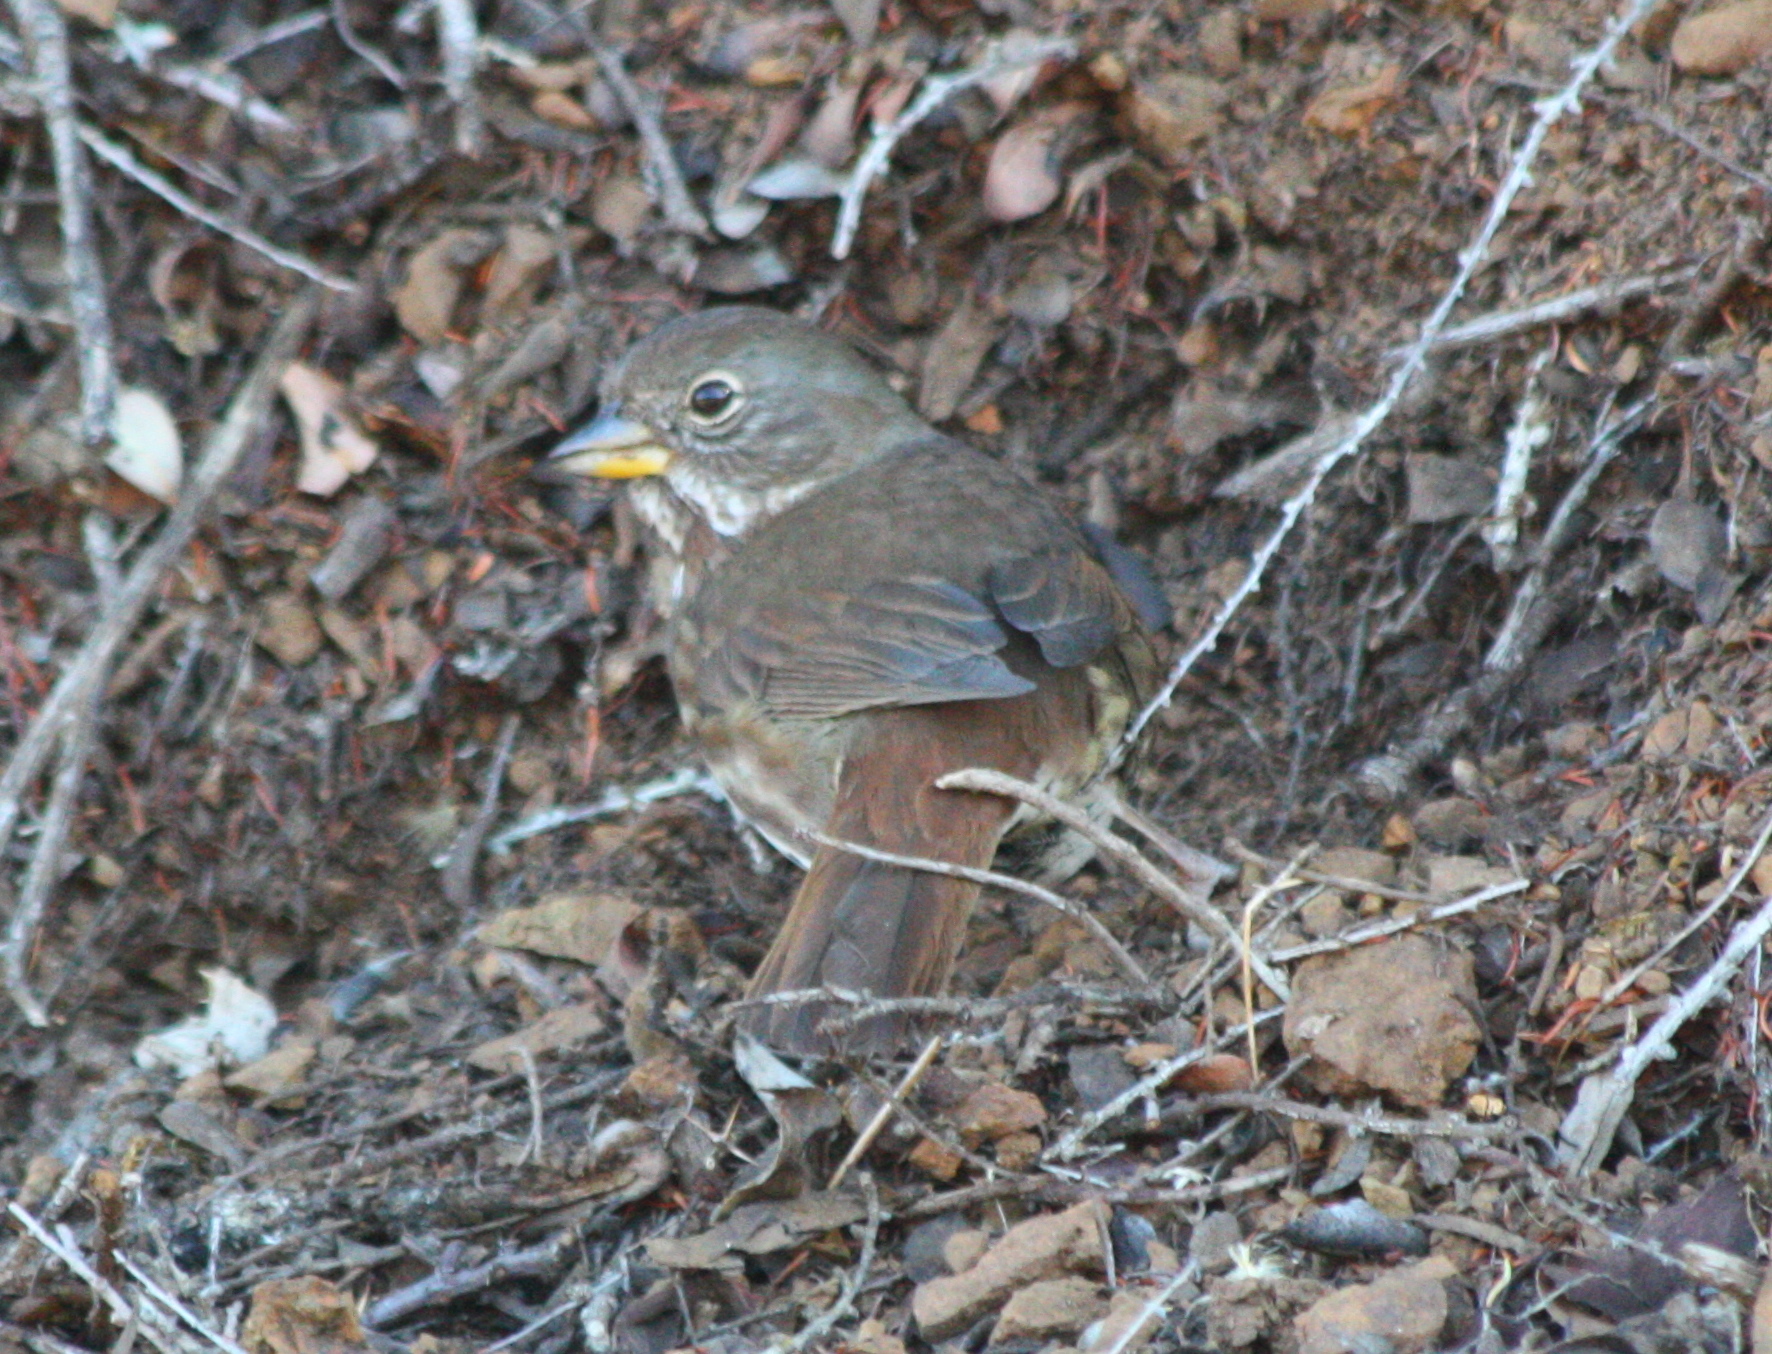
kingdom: Animalia
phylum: Chordata
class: Aves
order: Passeriformes
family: Passerellidae
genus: Passerella
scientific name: Passerella iliaca
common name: Fox sparrow
